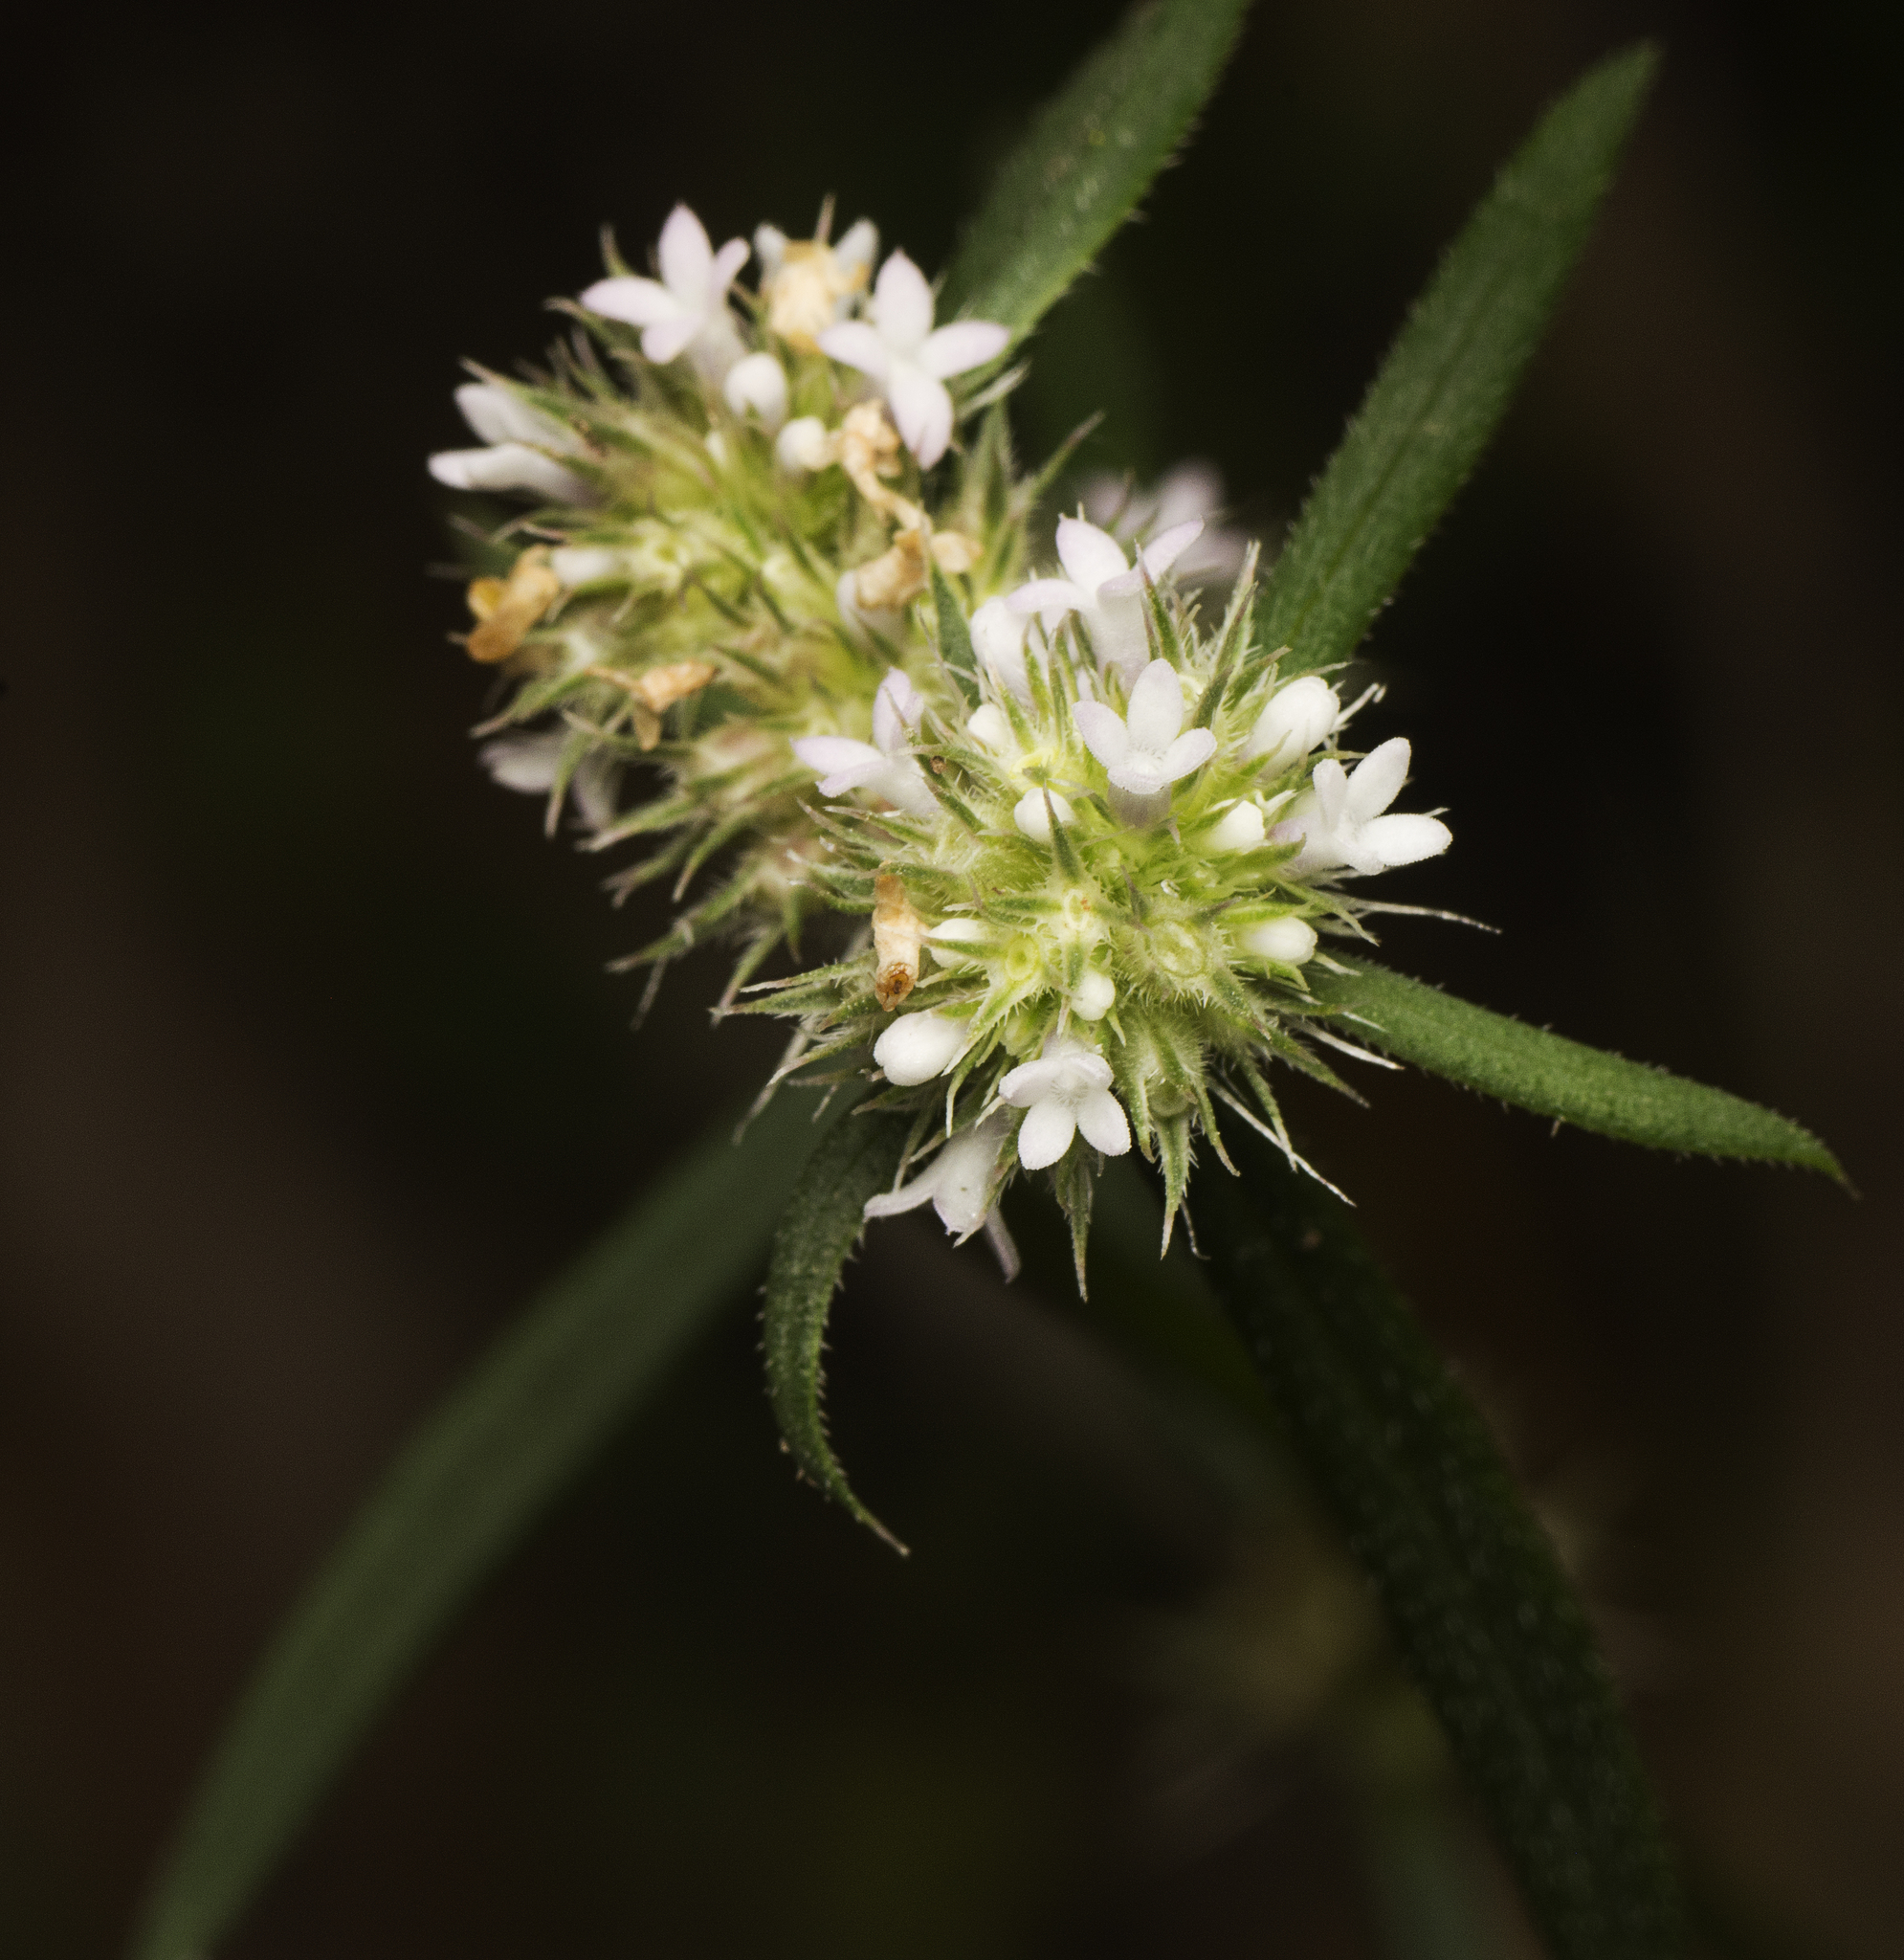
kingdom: Plantae
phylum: Tracheophyta
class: Magnoliopsida
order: Gentianales
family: Rubiaceae
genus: Spermacoce
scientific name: Spermacoce brachystema
